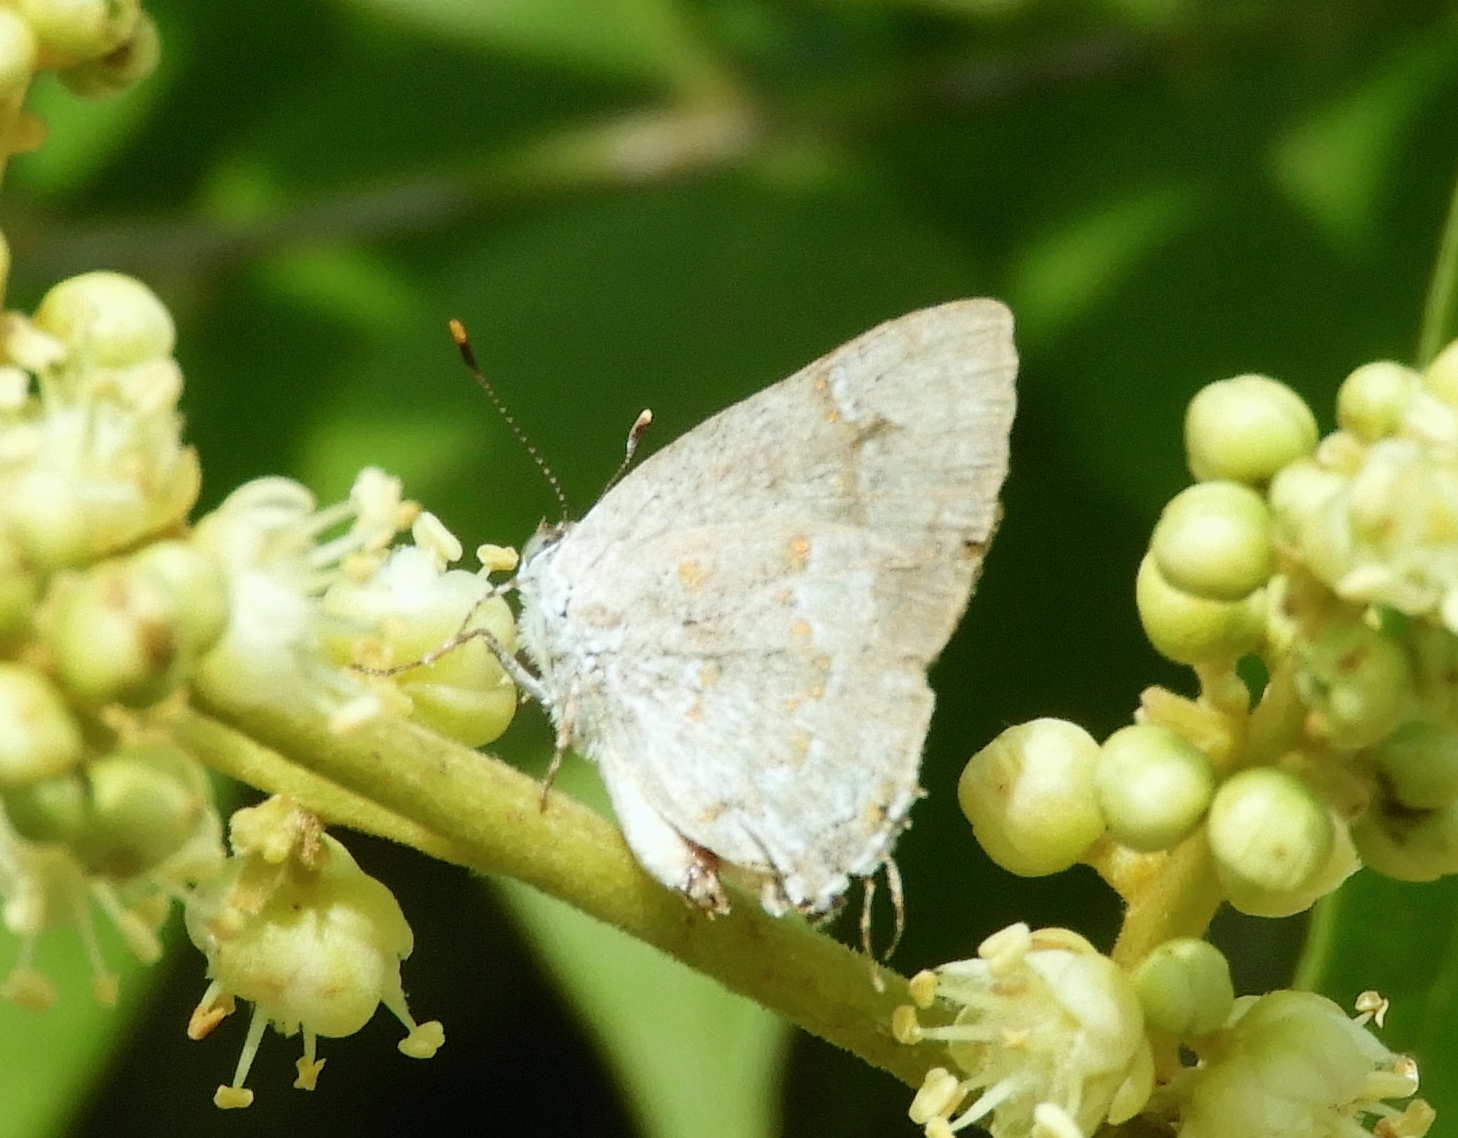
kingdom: Animalia
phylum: Arthropoda
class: Insecta
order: Lepidoptera
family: Lycaenidae
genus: Ministrymon
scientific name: Ministrymon
